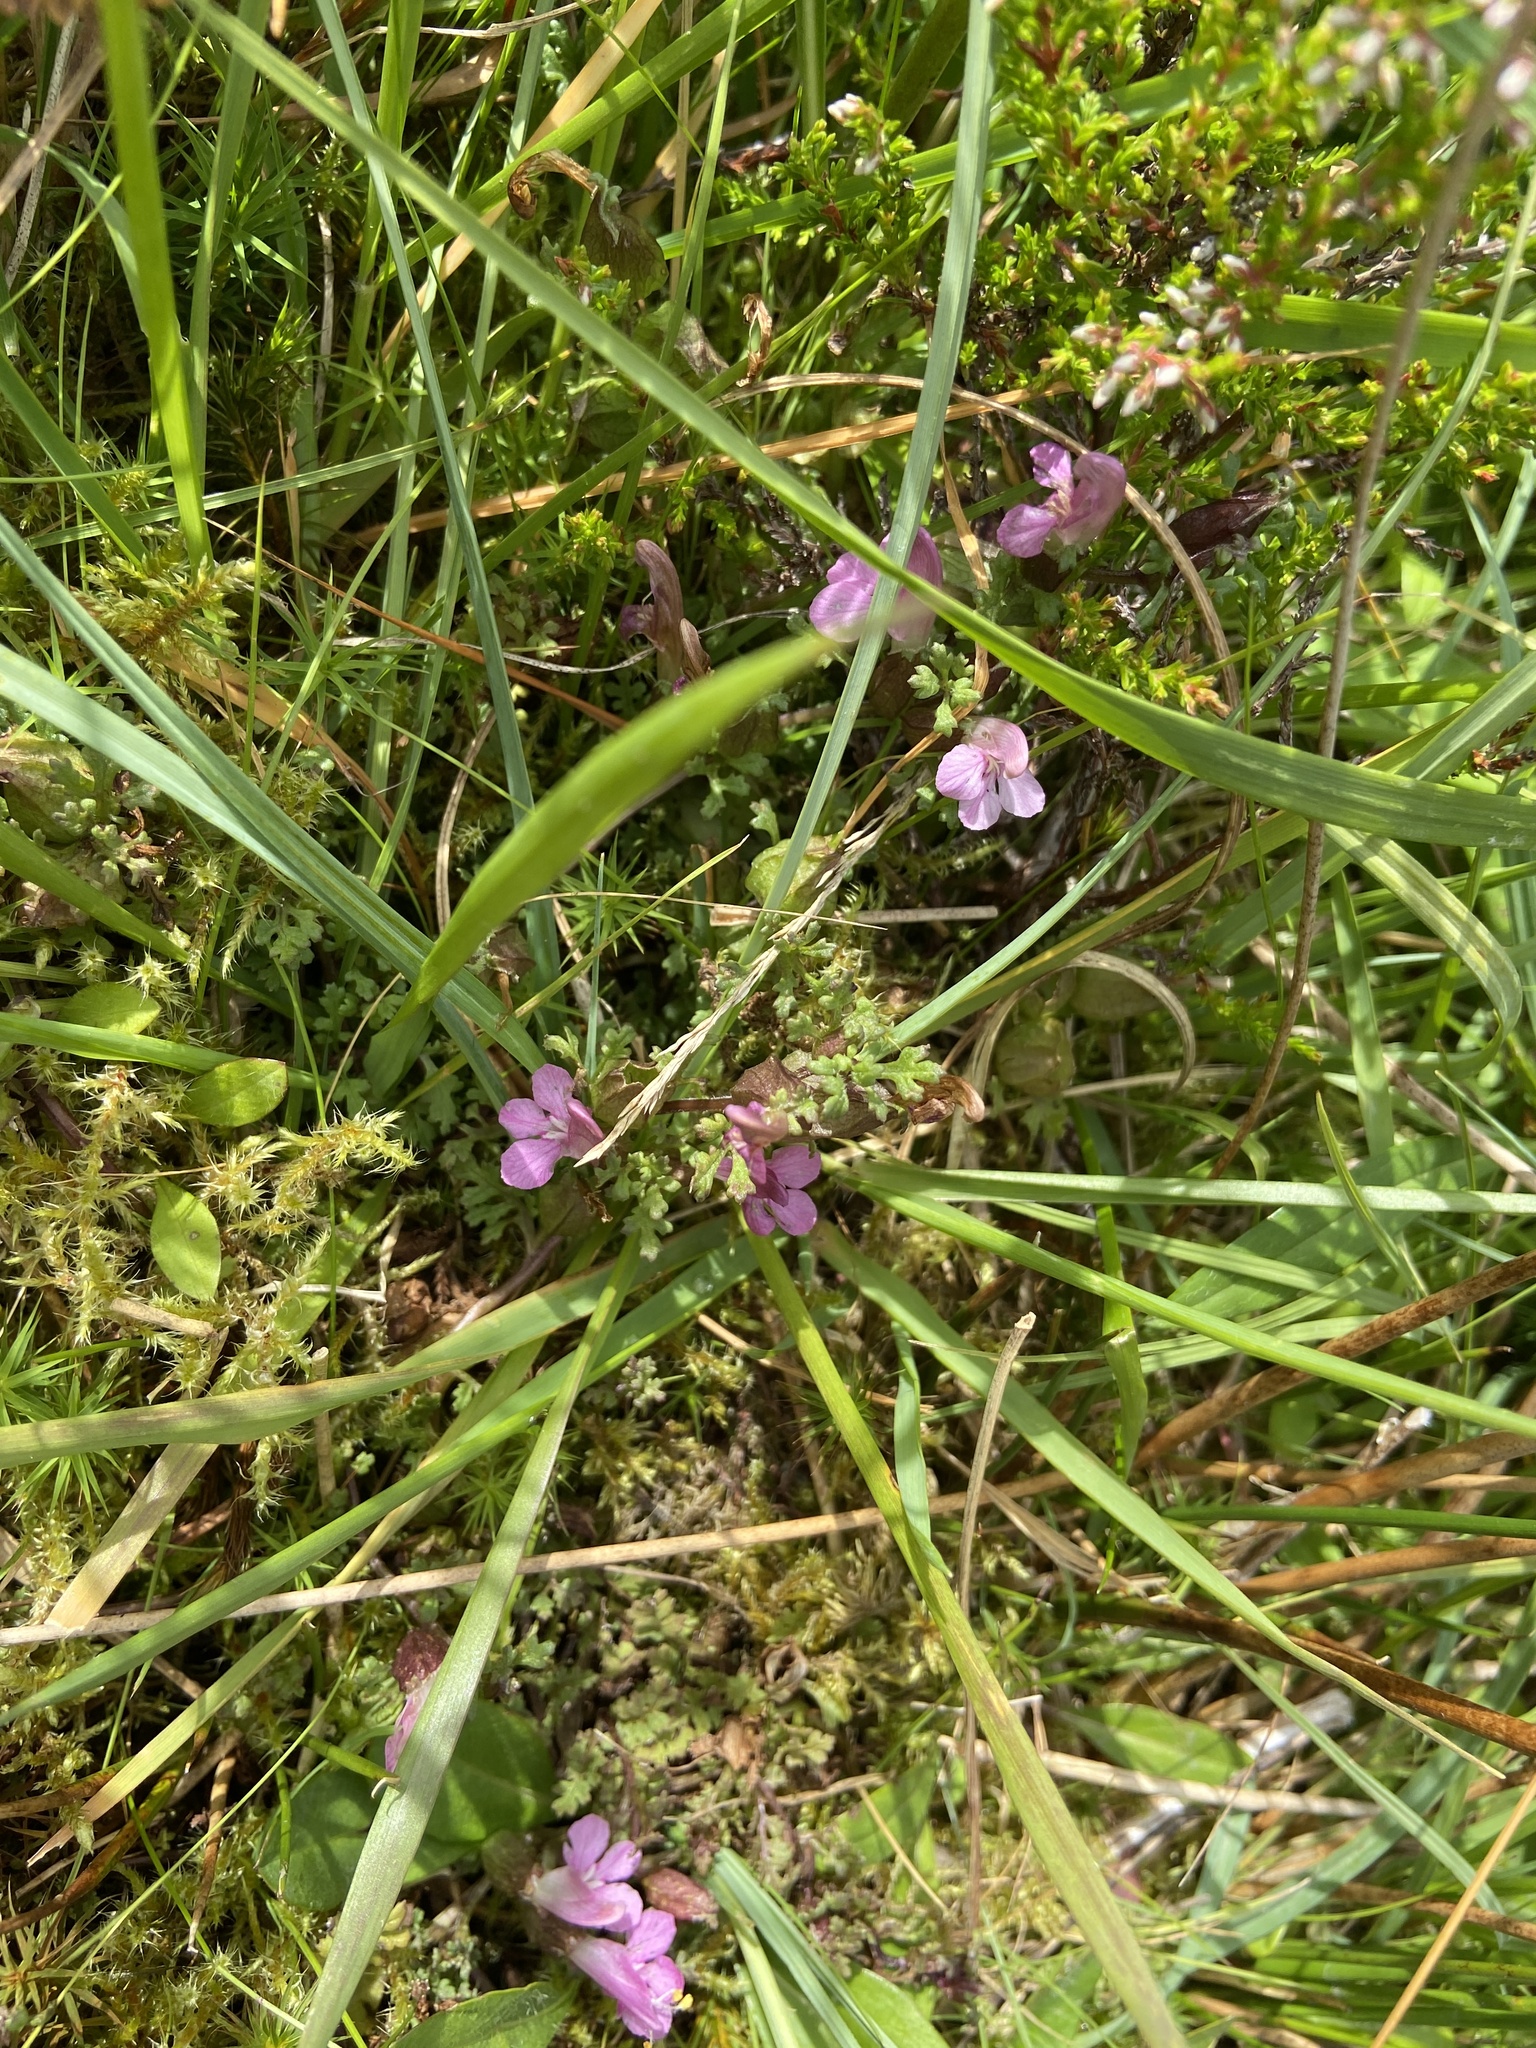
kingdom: Plantae
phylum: Tracheophyta
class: Magnoliopsida
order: Lamiales
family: Orobanchaceae
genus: Pedicularis
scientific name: Pedicularis sylvatica
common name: Lousewort
